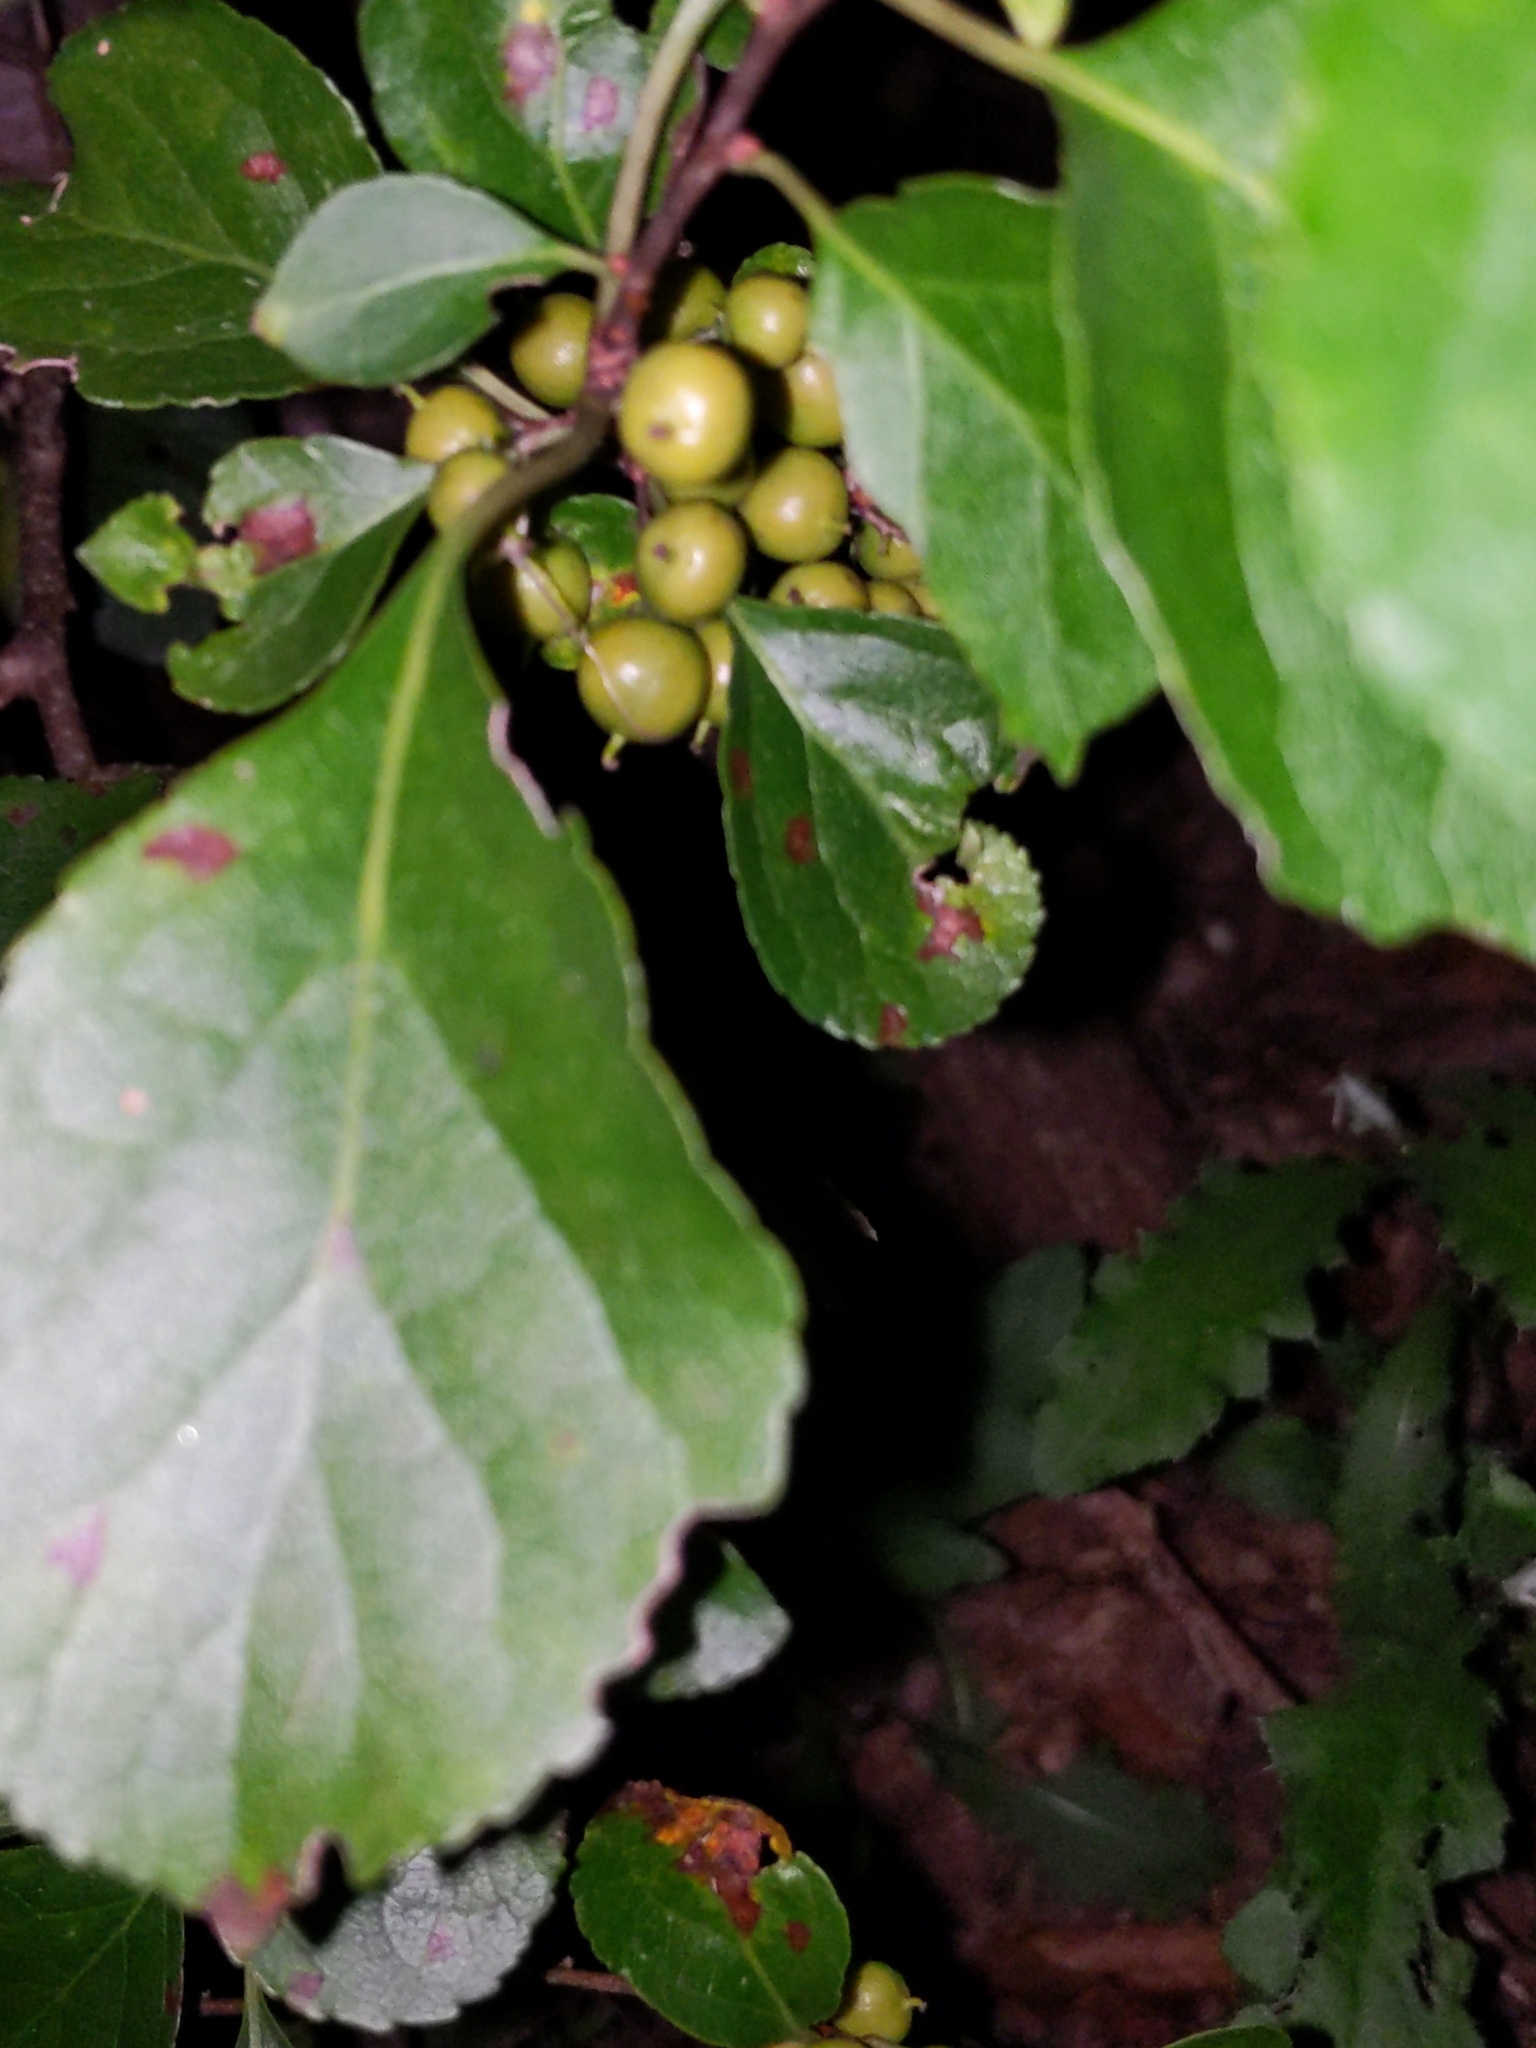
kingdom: Plantae
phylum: Tracheophyta
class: Magnoliopsida
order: Celastrales
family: Celastraceae
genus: Celastrus
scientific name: Celastrus orbiculatus
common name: Oriental bittersweet
